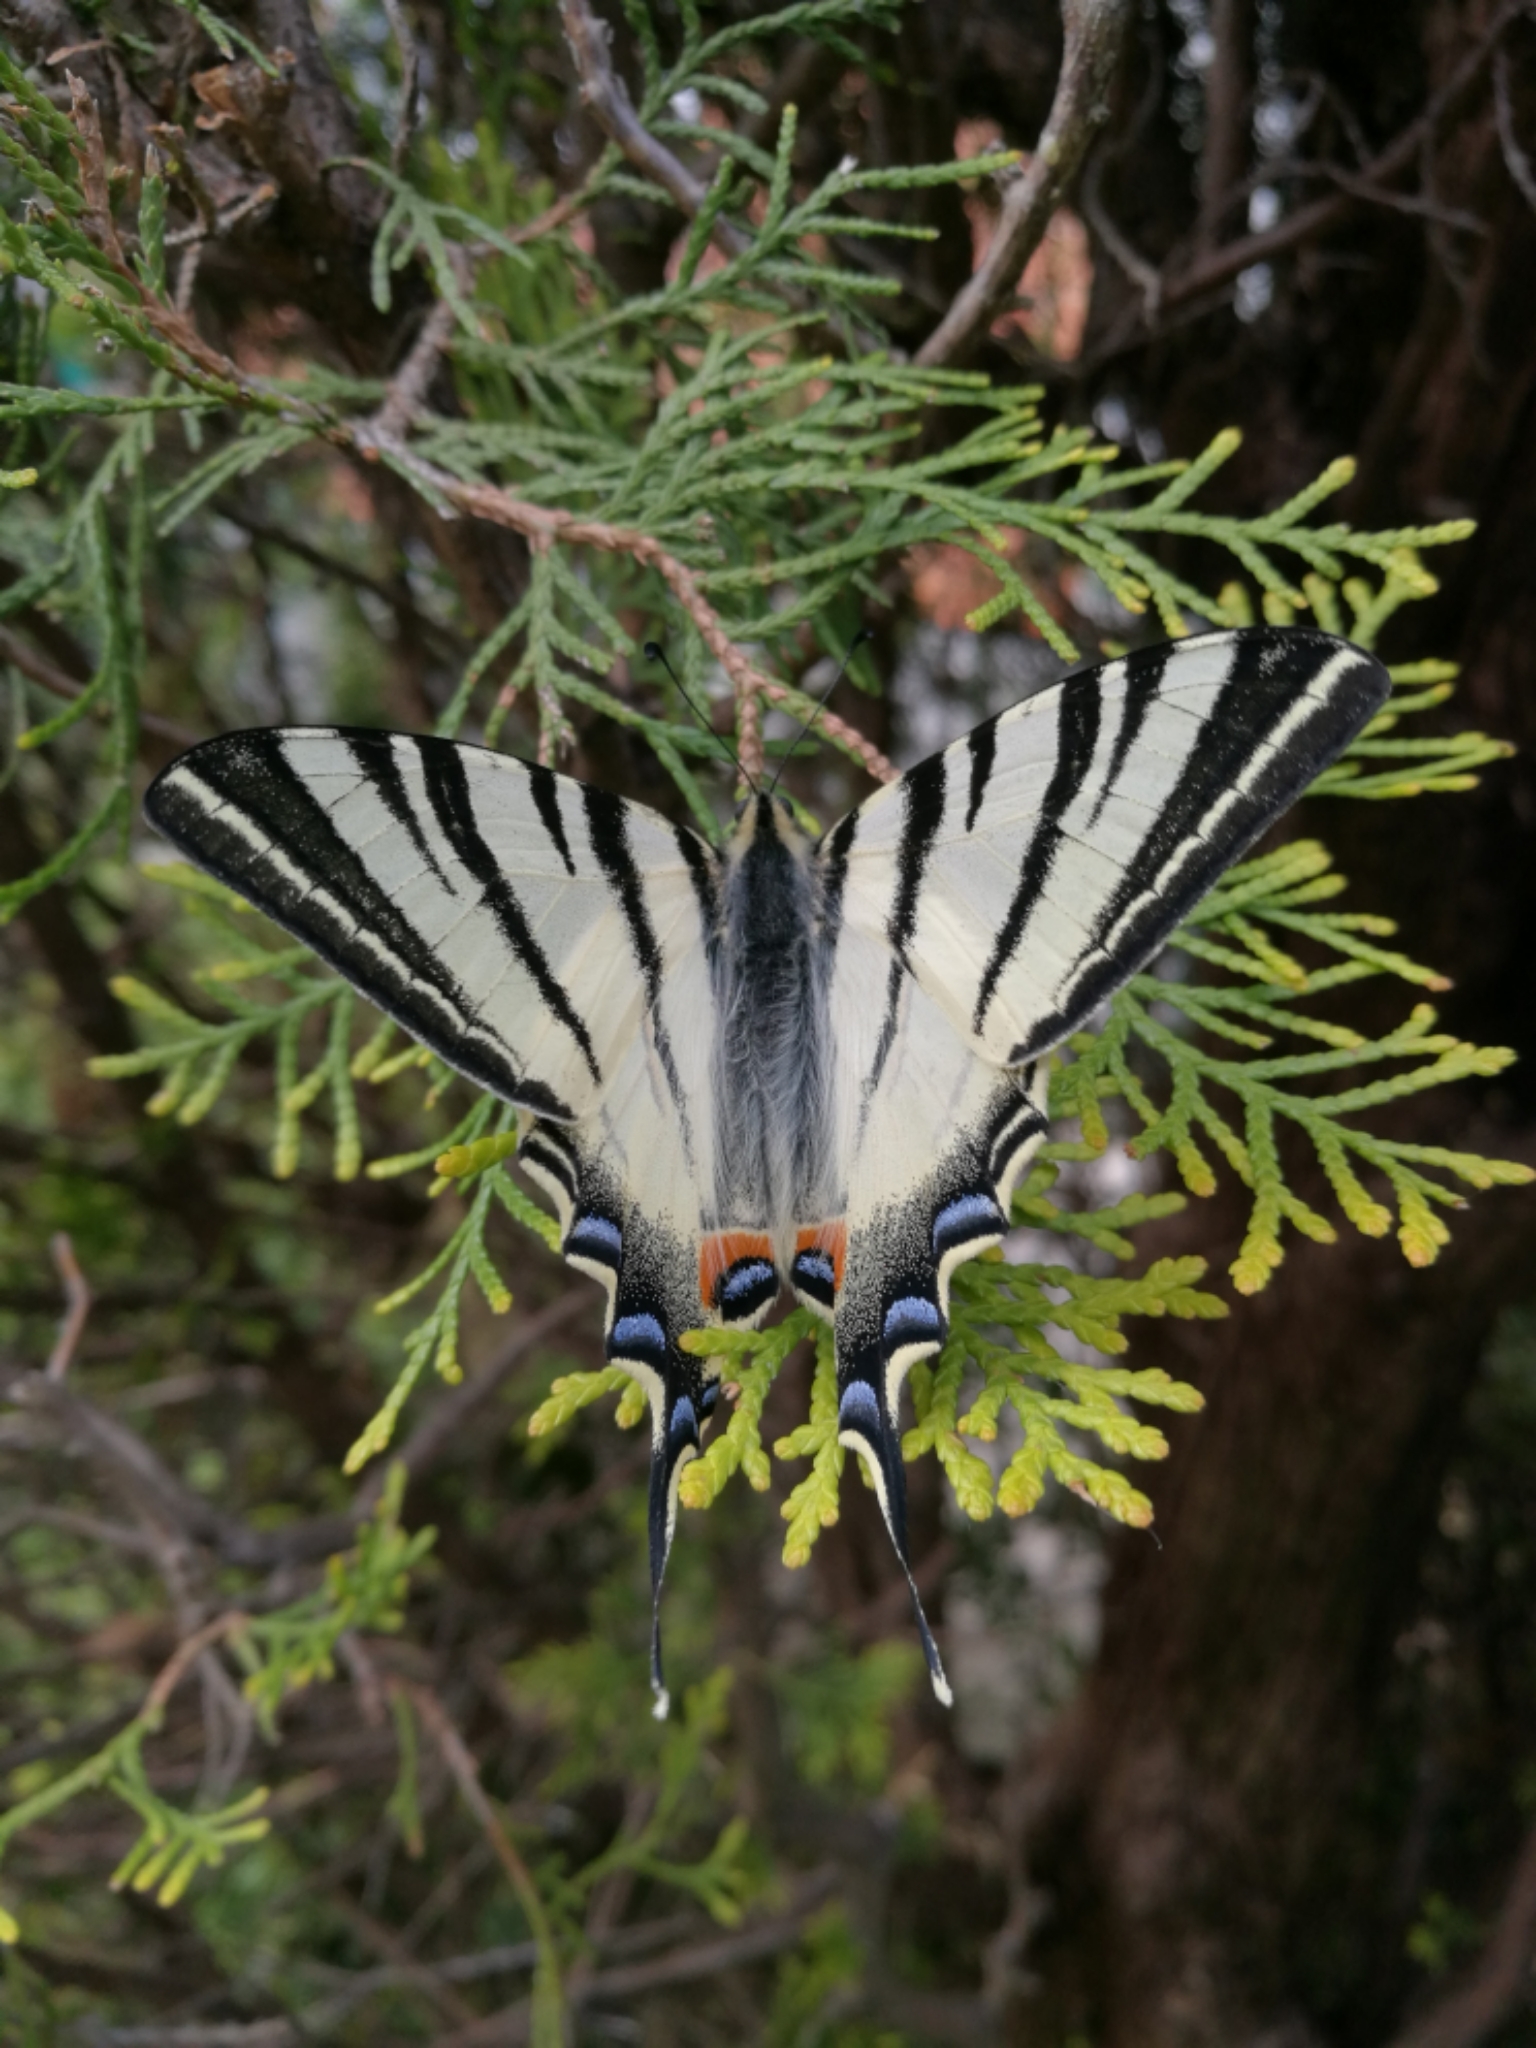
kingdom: Animalia
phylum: Arthropoda
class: Insecta
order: Lepidoptera
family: Papilionidae
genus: Iphiclides
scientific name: Iphiclides podalirius
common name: Scarce swallowtail
